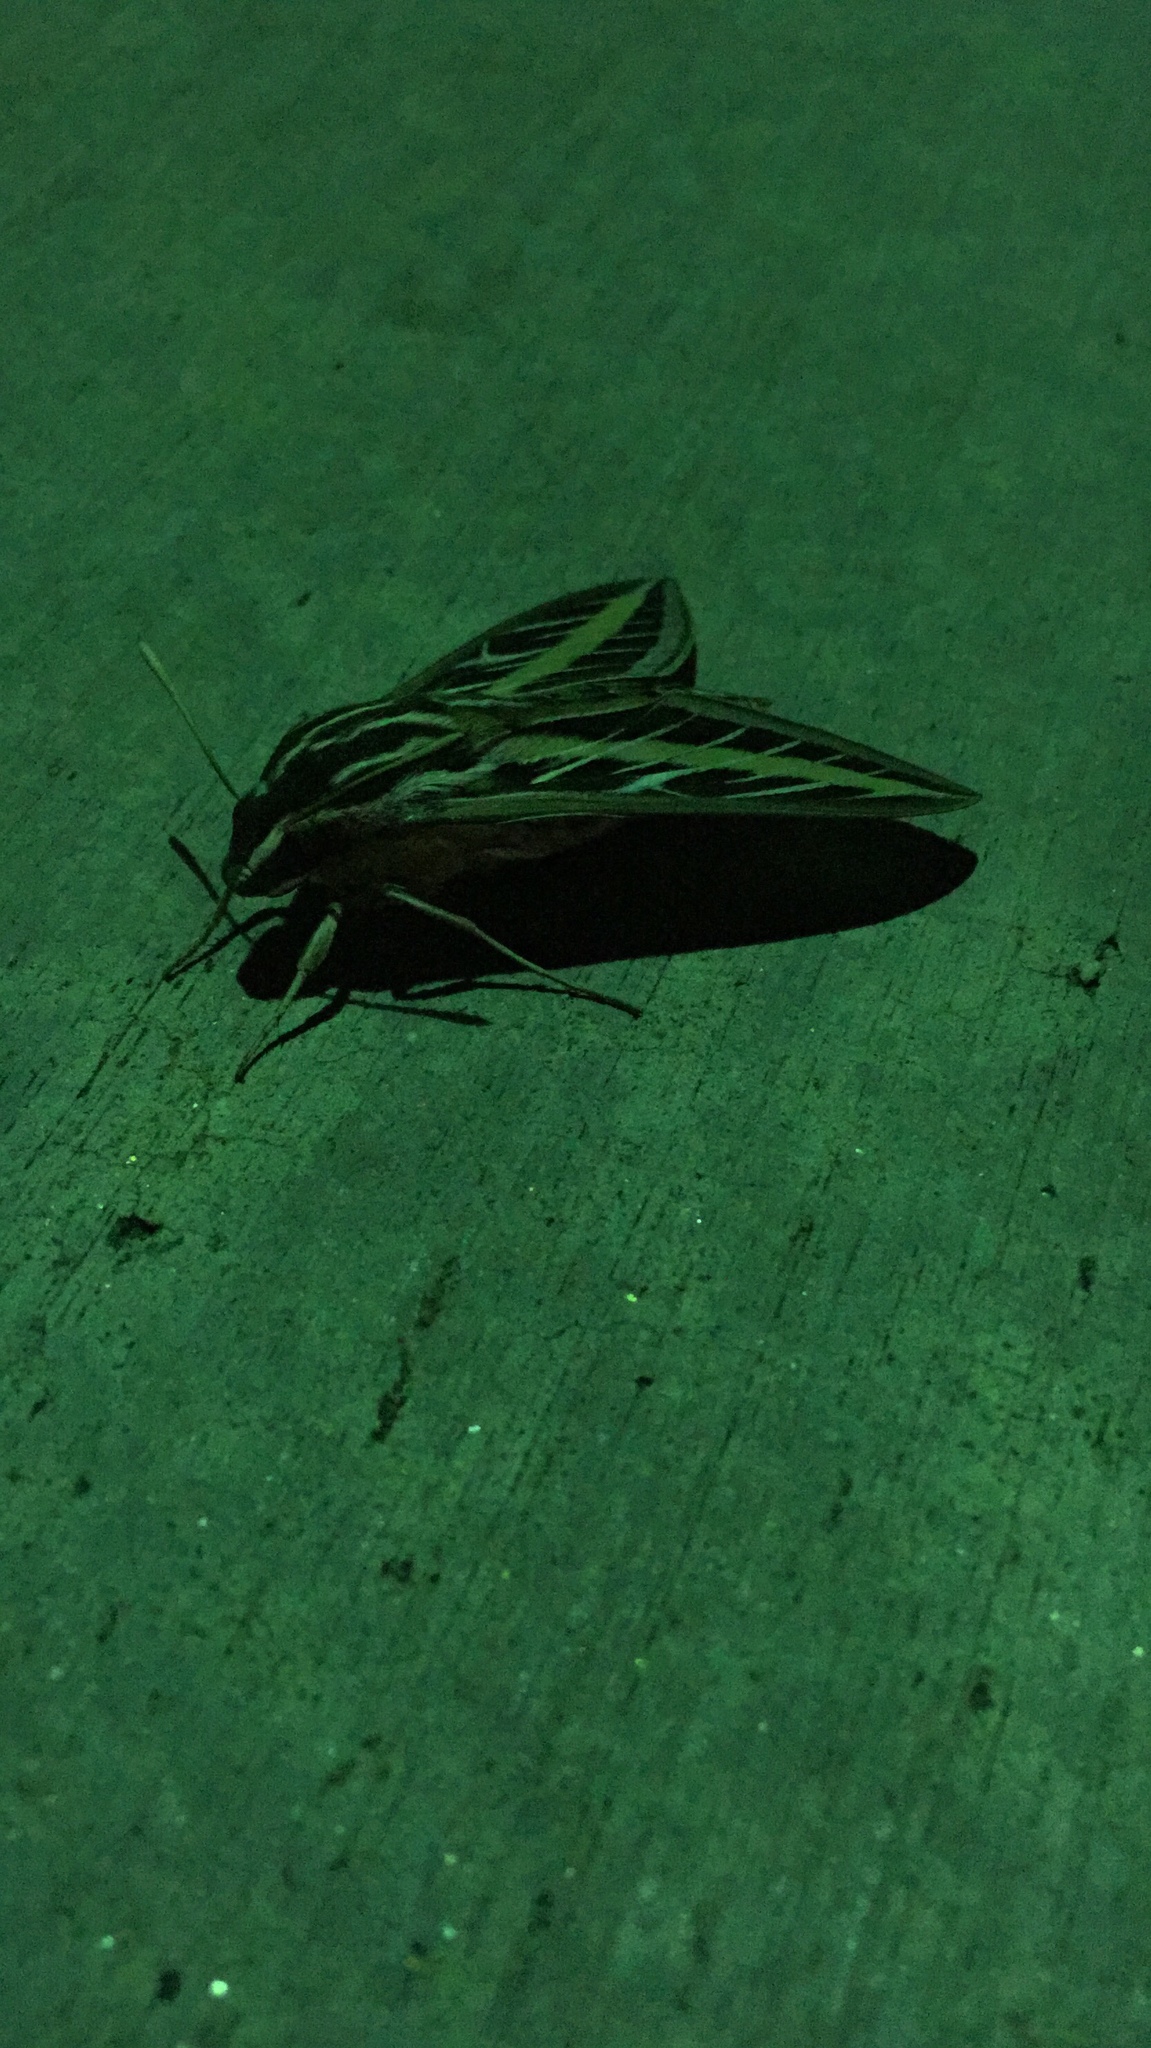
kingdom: Animalia
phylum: Arthropoda
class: Insecta
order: Lepidoptera
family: Sphingidae
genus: Hyles
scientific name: Hyles lineata
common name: White-lined sphinx
